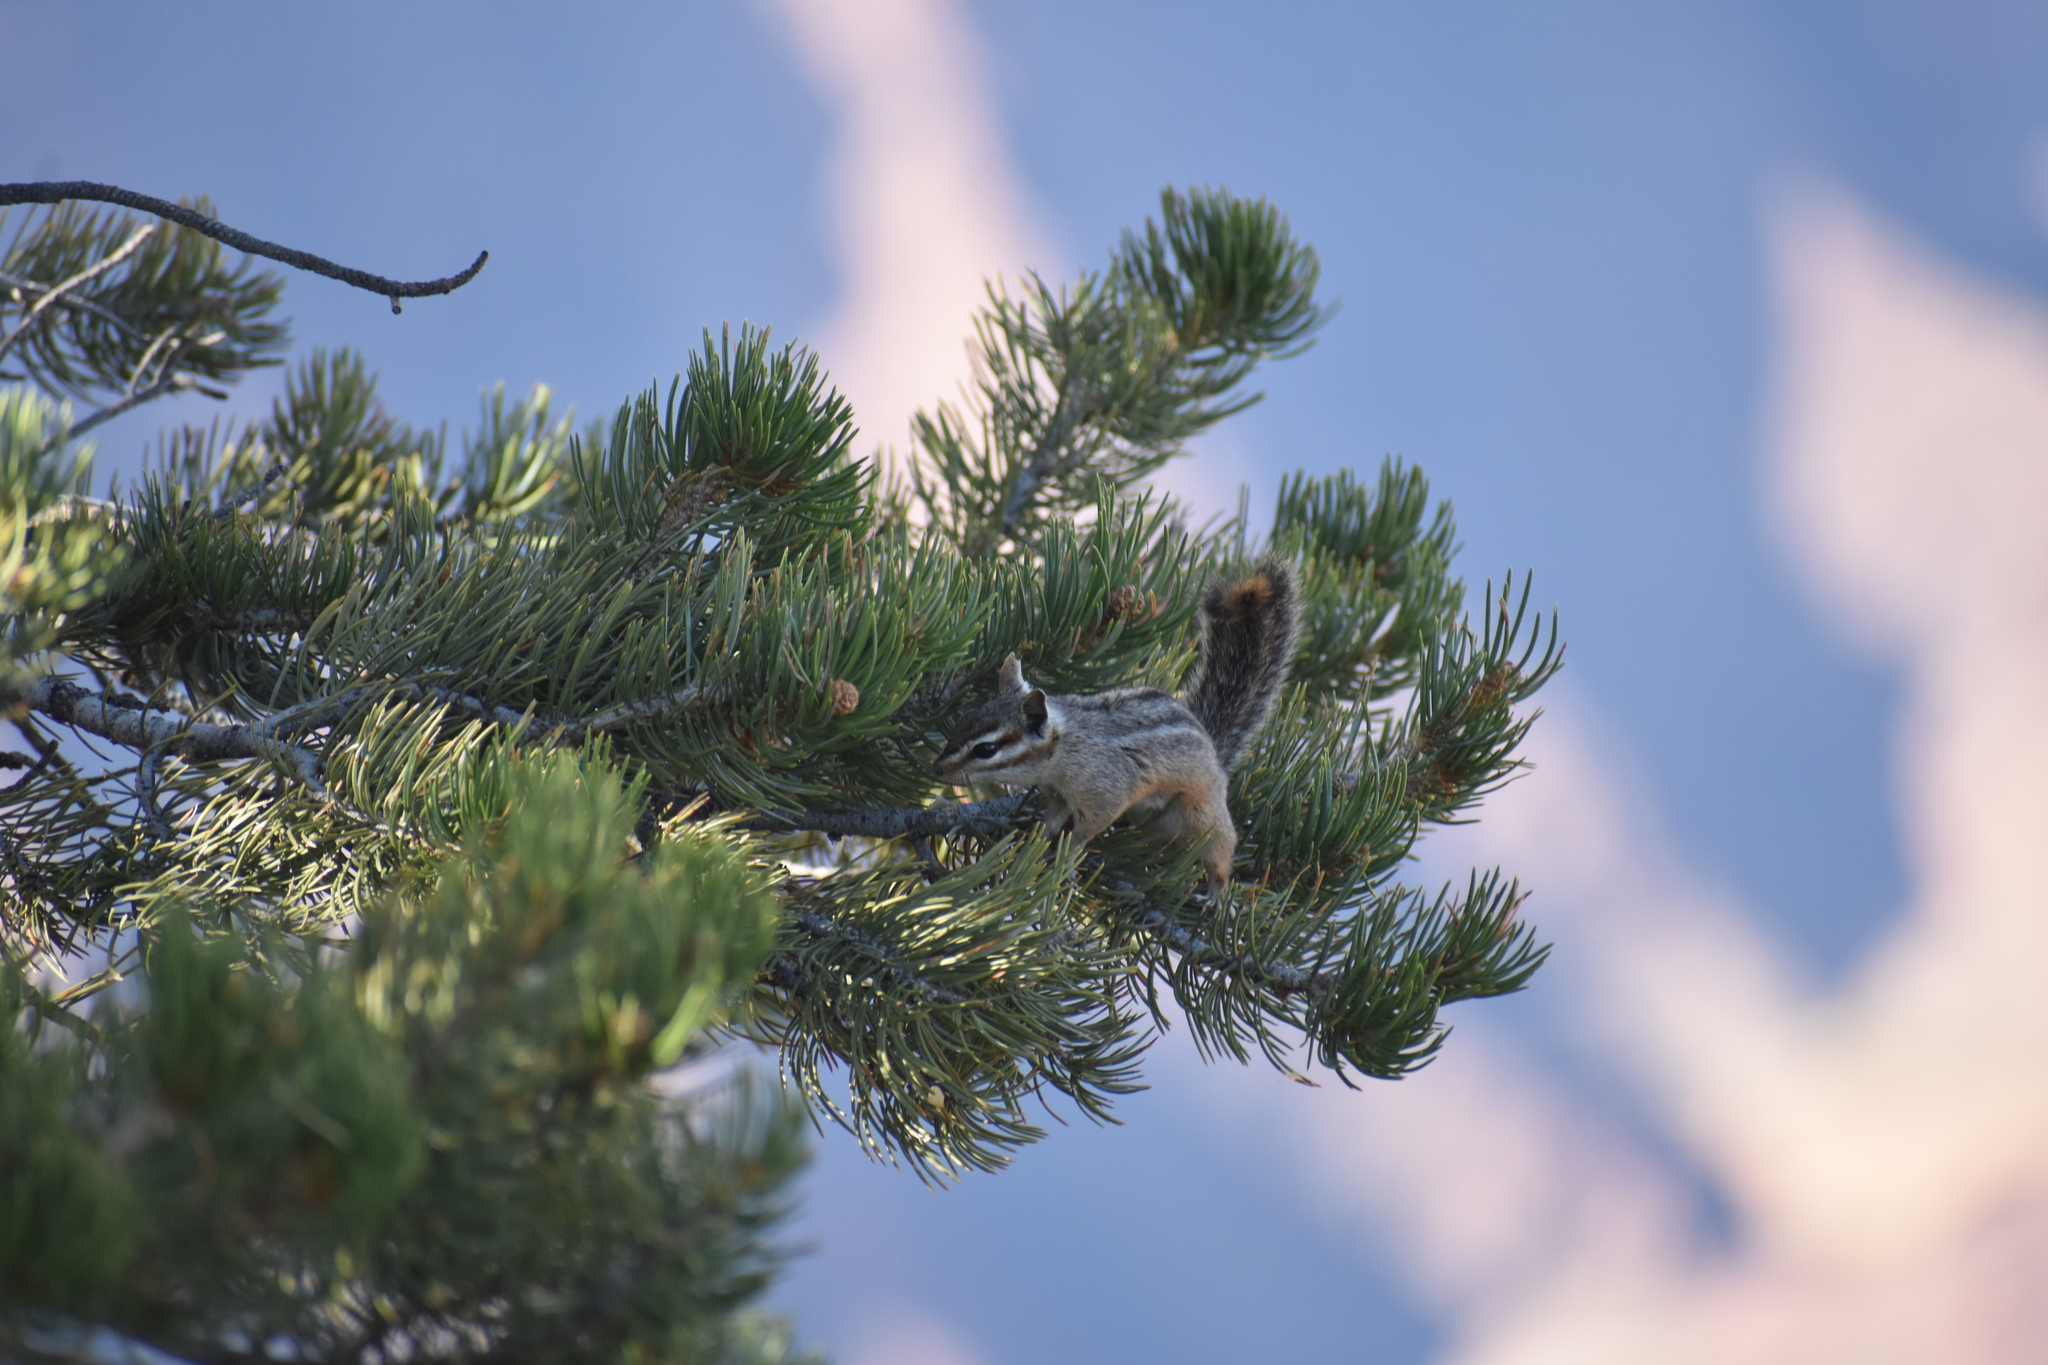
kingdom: Animalia
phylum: Chordata
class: Mammalia
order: Rodentia
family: Sciuridae
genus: Tamias
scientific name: Tamias dorsalis
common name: Cliff chipmunk
